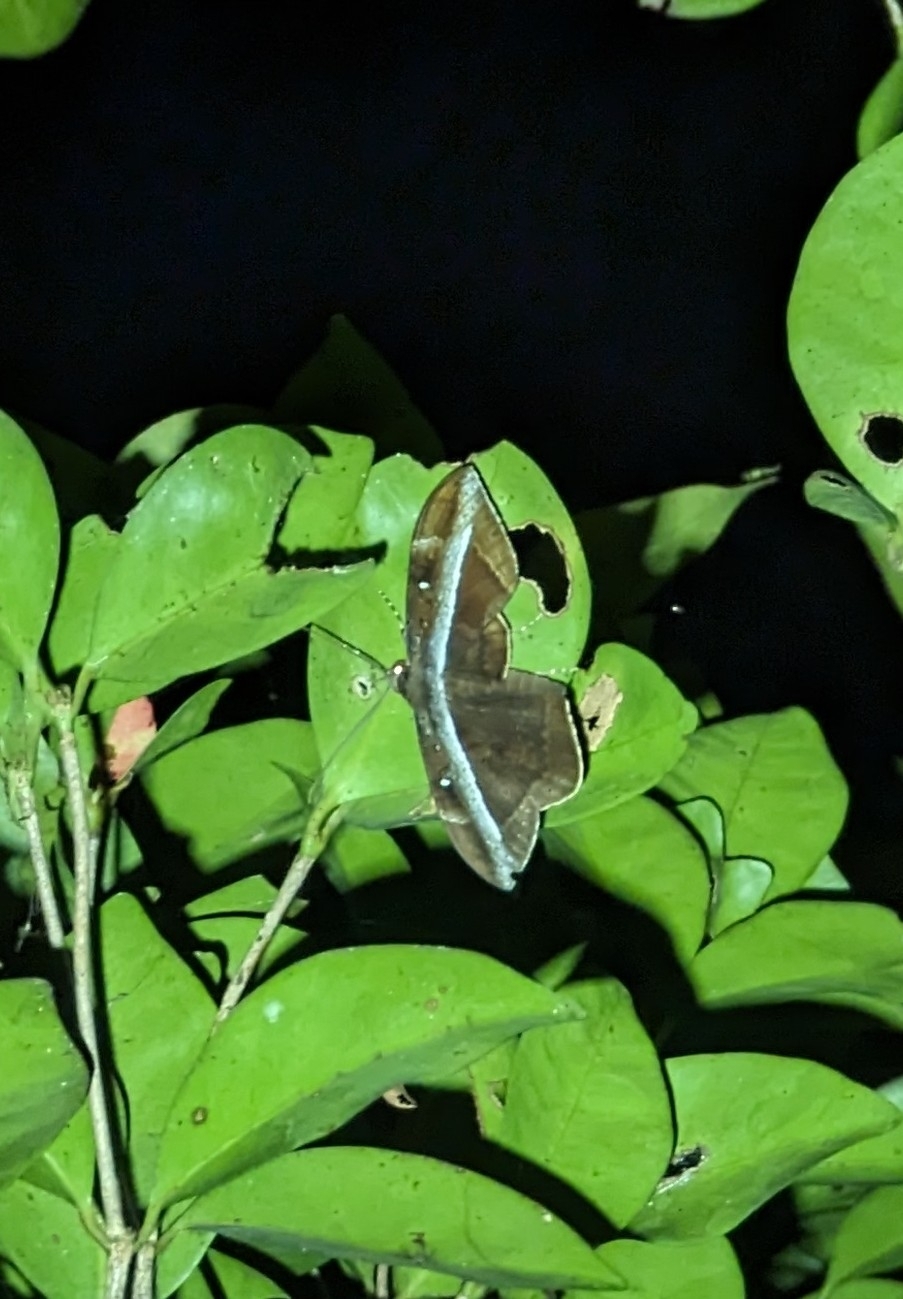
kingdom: Animalia
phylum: Arthropoda
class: Insecta
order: Lepidoptera
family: Erebidae
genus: Hemeroblemma
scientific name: Hemeroblemma opigena
